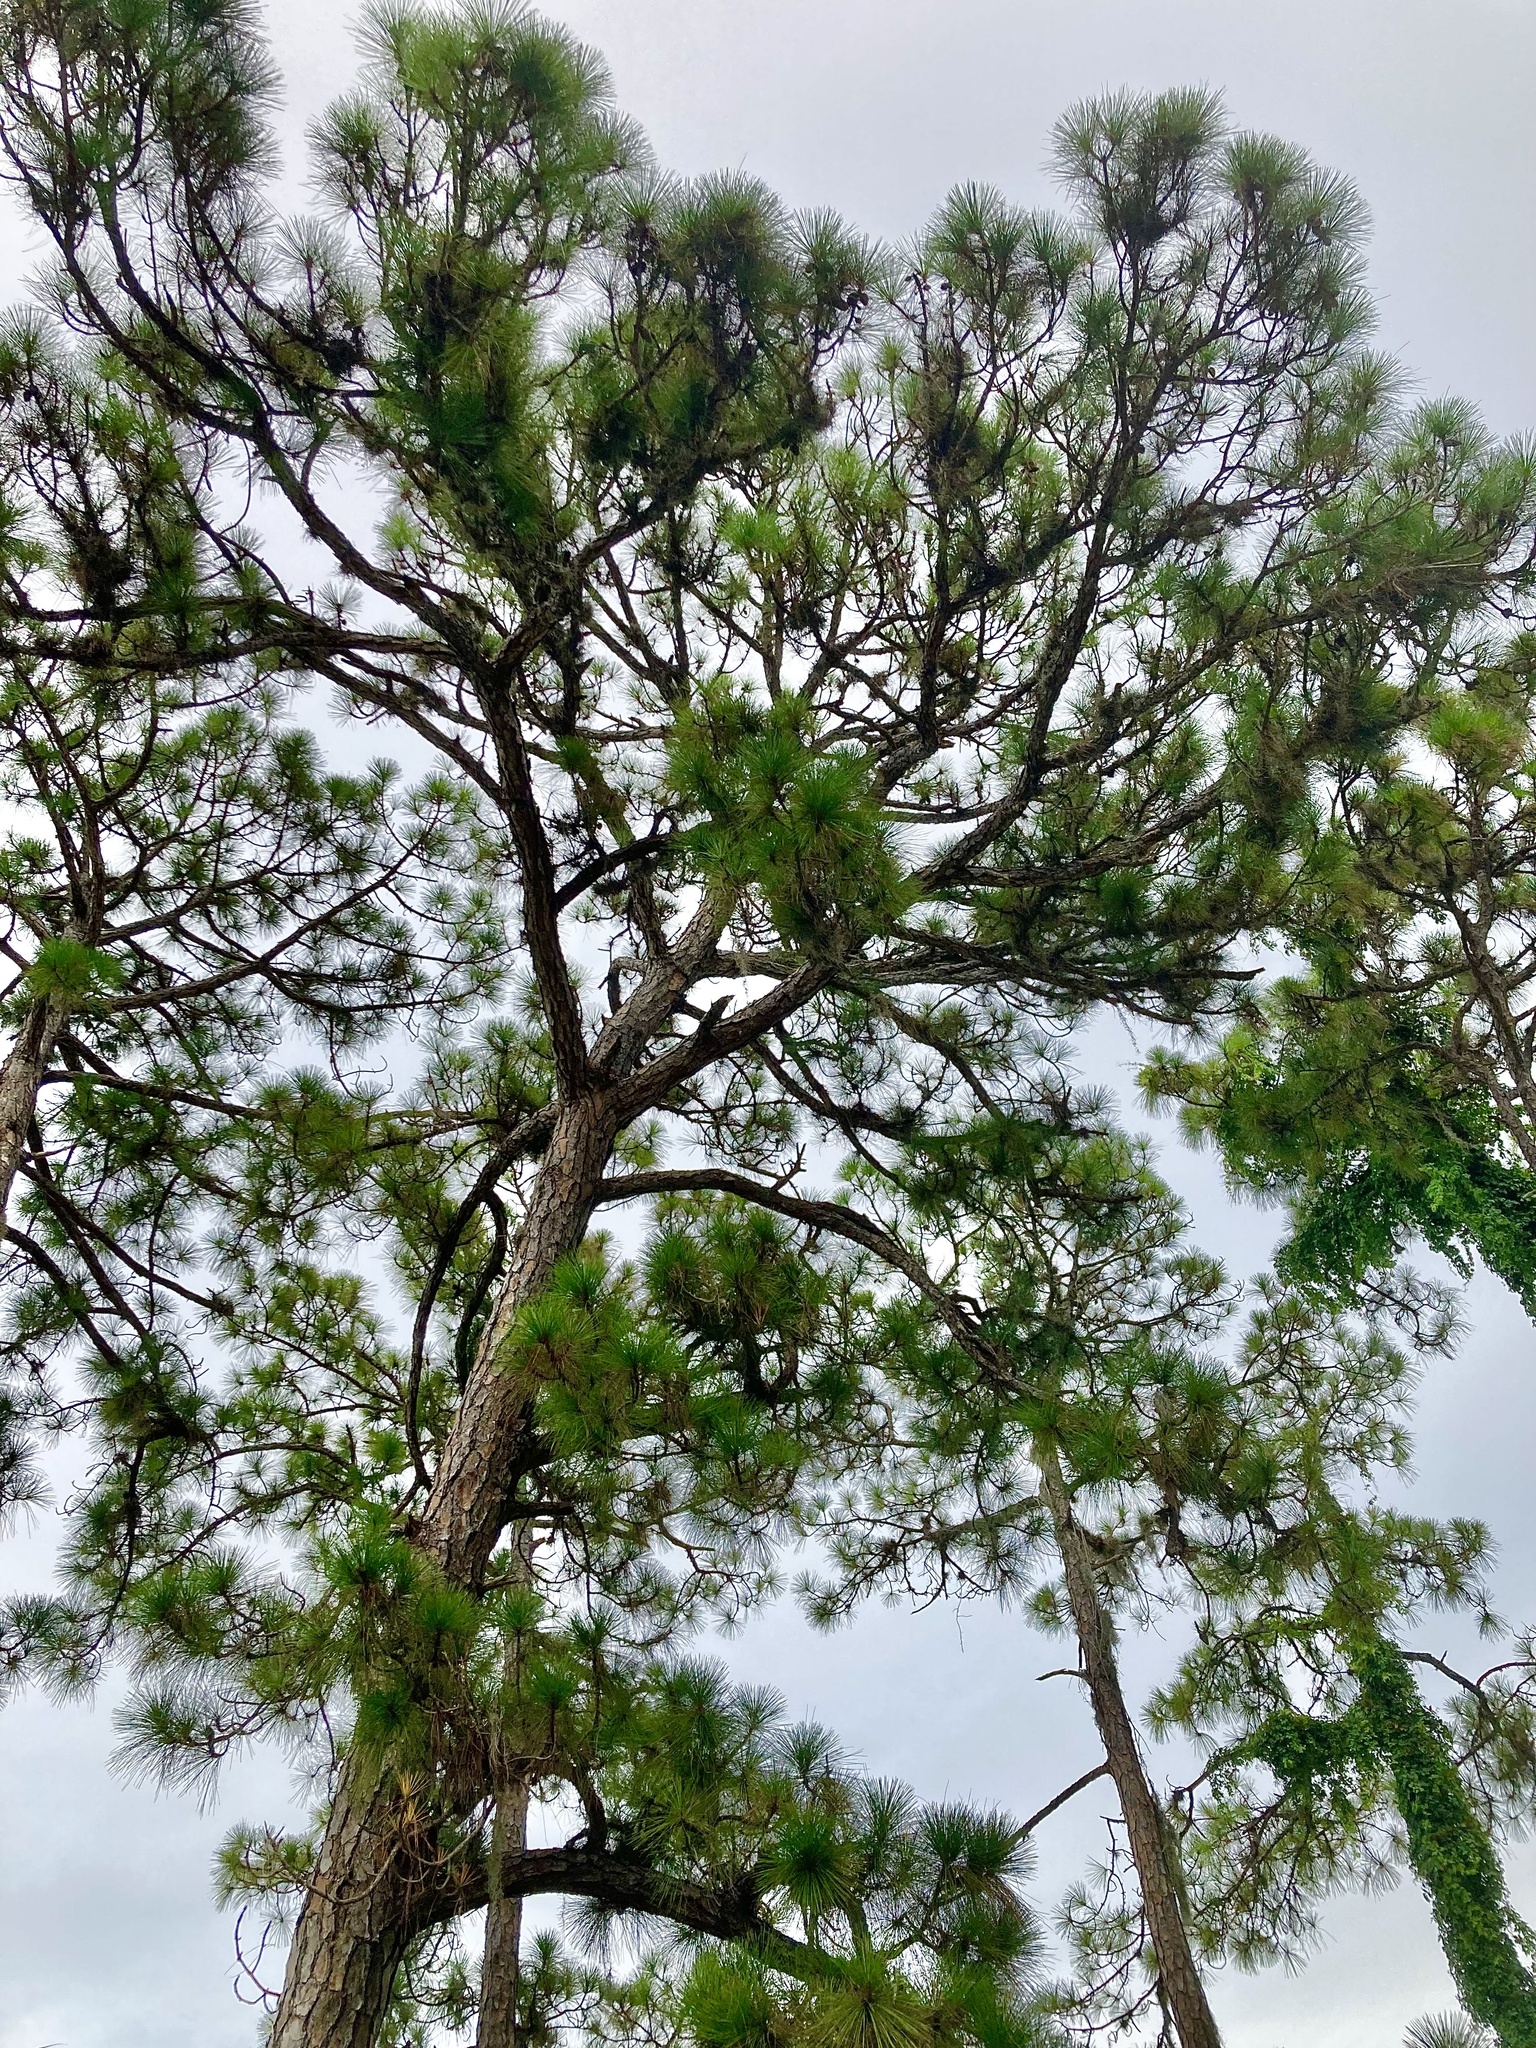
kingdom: Plantae
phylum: Tracheophyta
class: Pinopsida
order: Pinales
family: Pinaceae
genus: Pinus
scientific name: Pinus elliottii
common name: Slash pine
